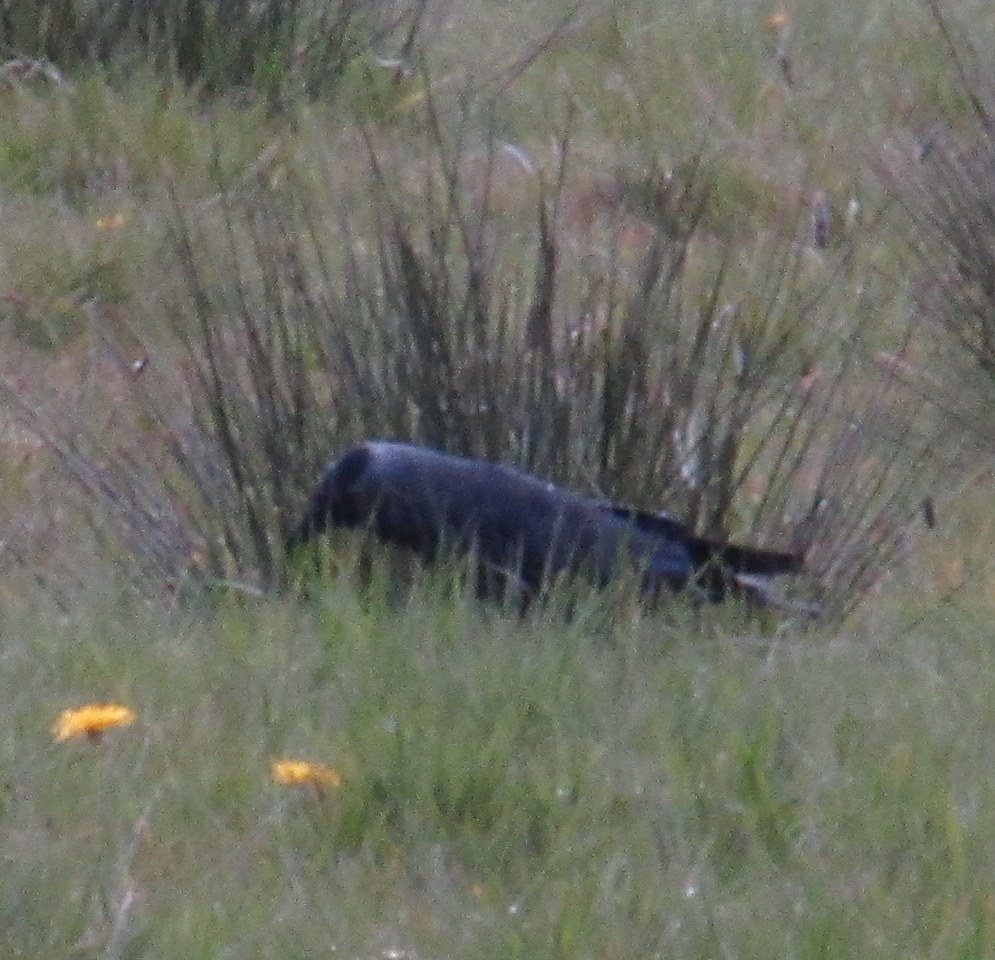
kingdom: Animalia
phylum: Chordata
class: Aves
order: Passeriformes
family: Corvidae
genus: Coloeus
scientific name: Coloeus monedula
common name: Western jackdaw
